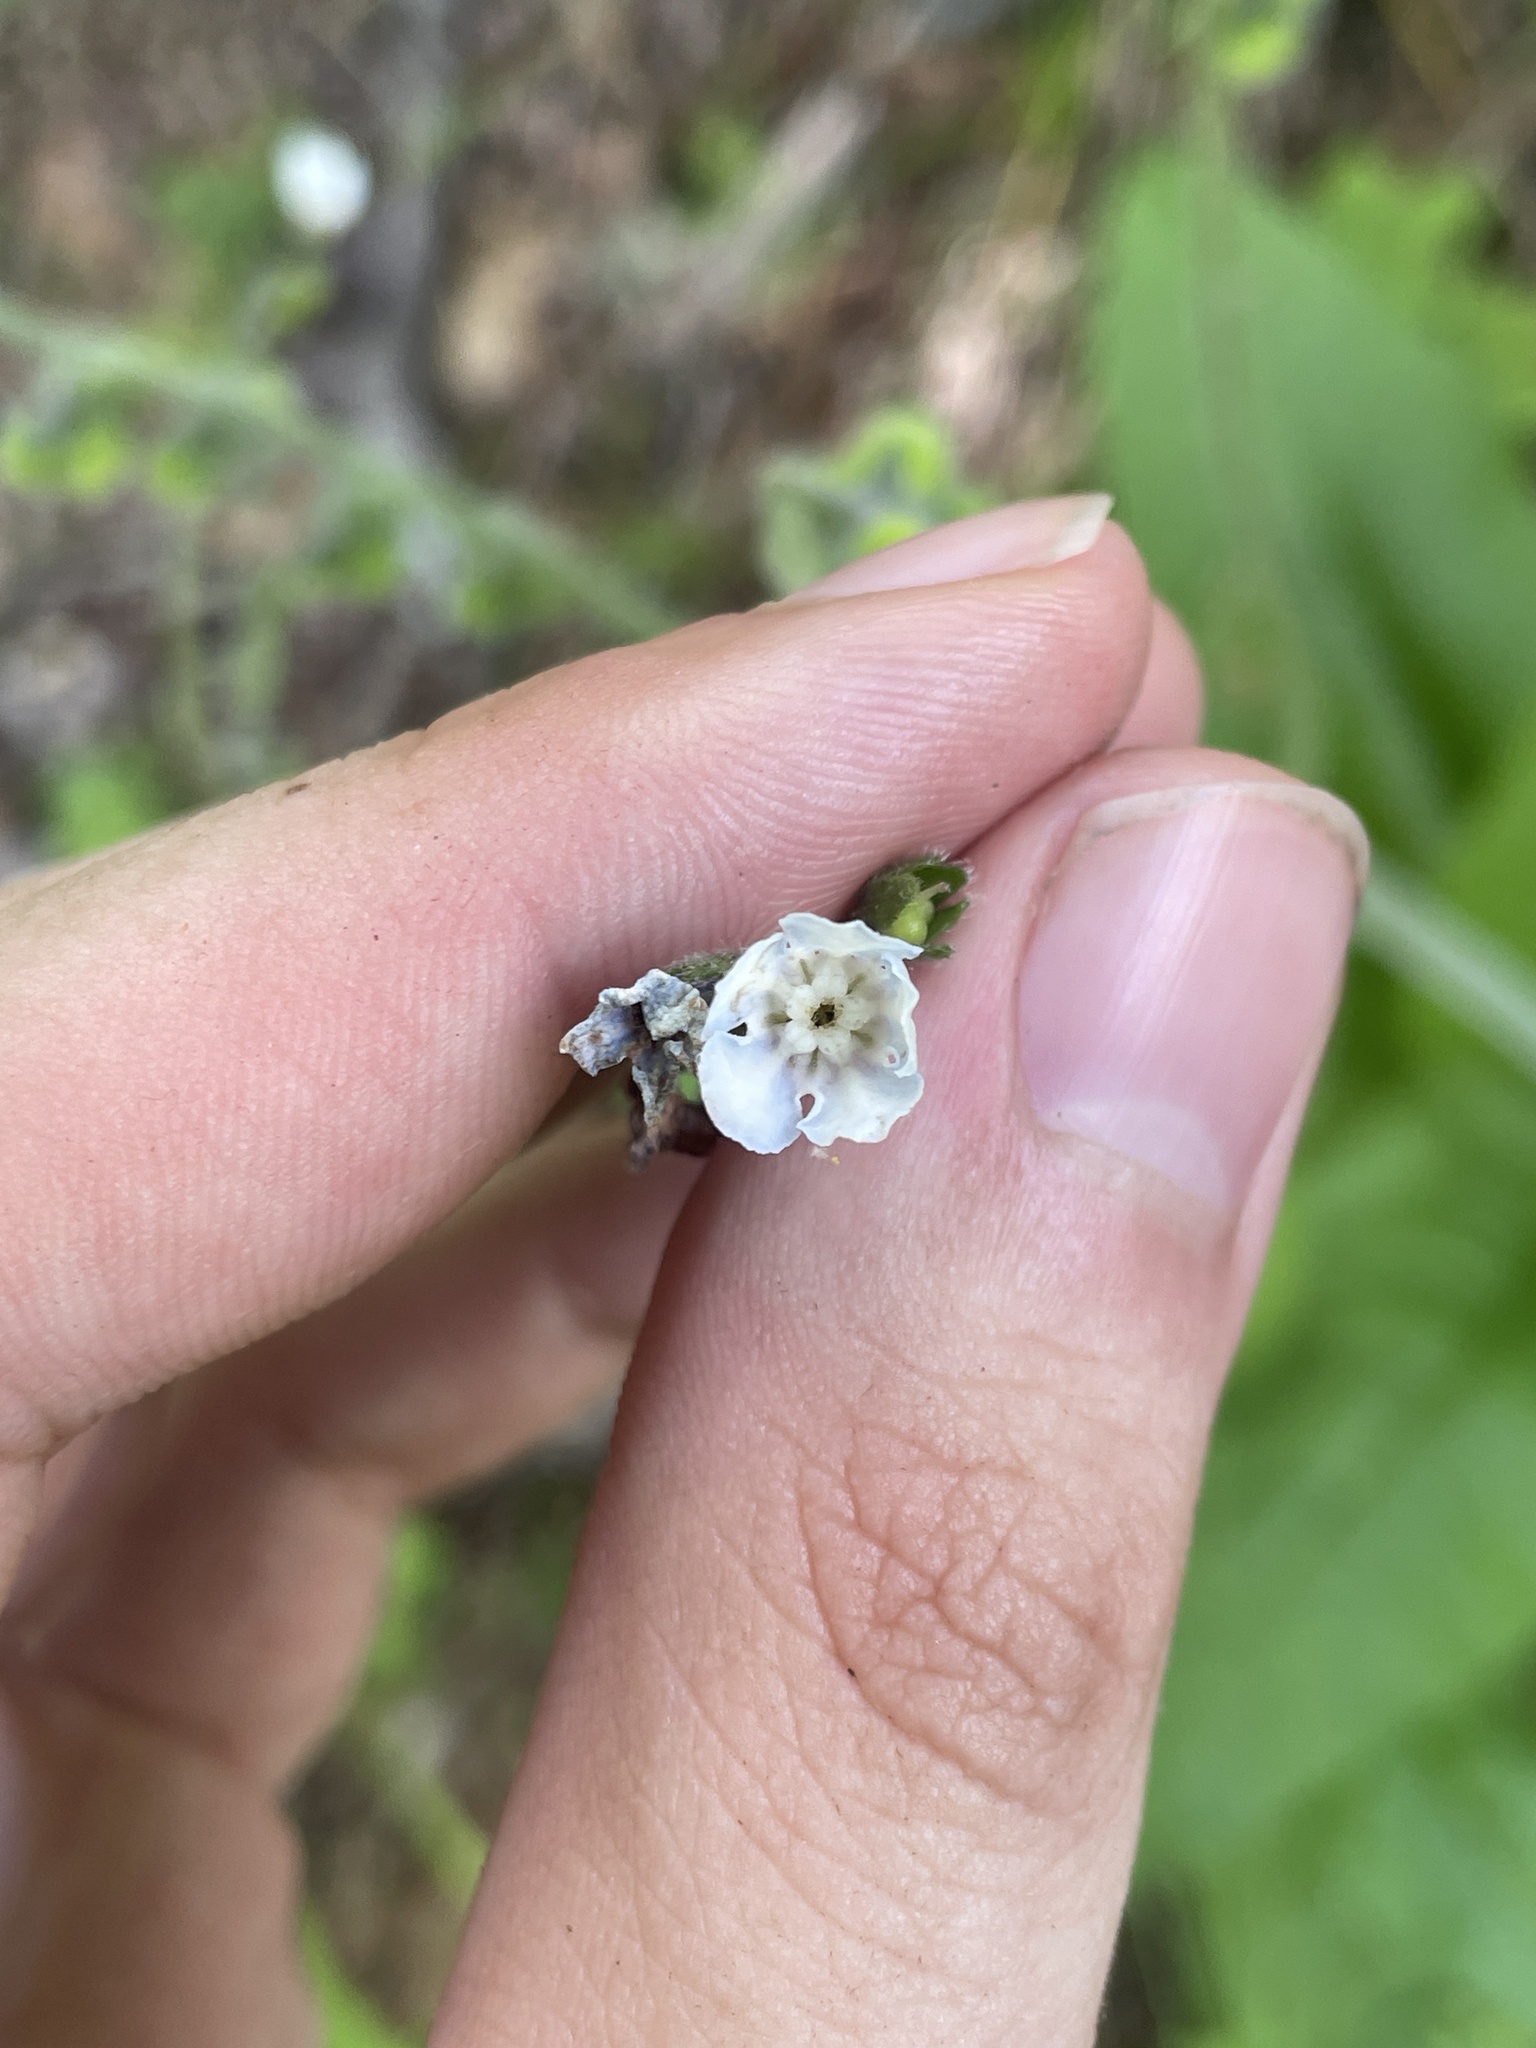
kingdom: Plantae
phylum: Tracheophyta
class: Magnoliopsida
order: Boraginales
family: Boraginaceae
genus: Andersonglossum
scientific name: Andersonglossum virginianum
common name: Wild comfrey
